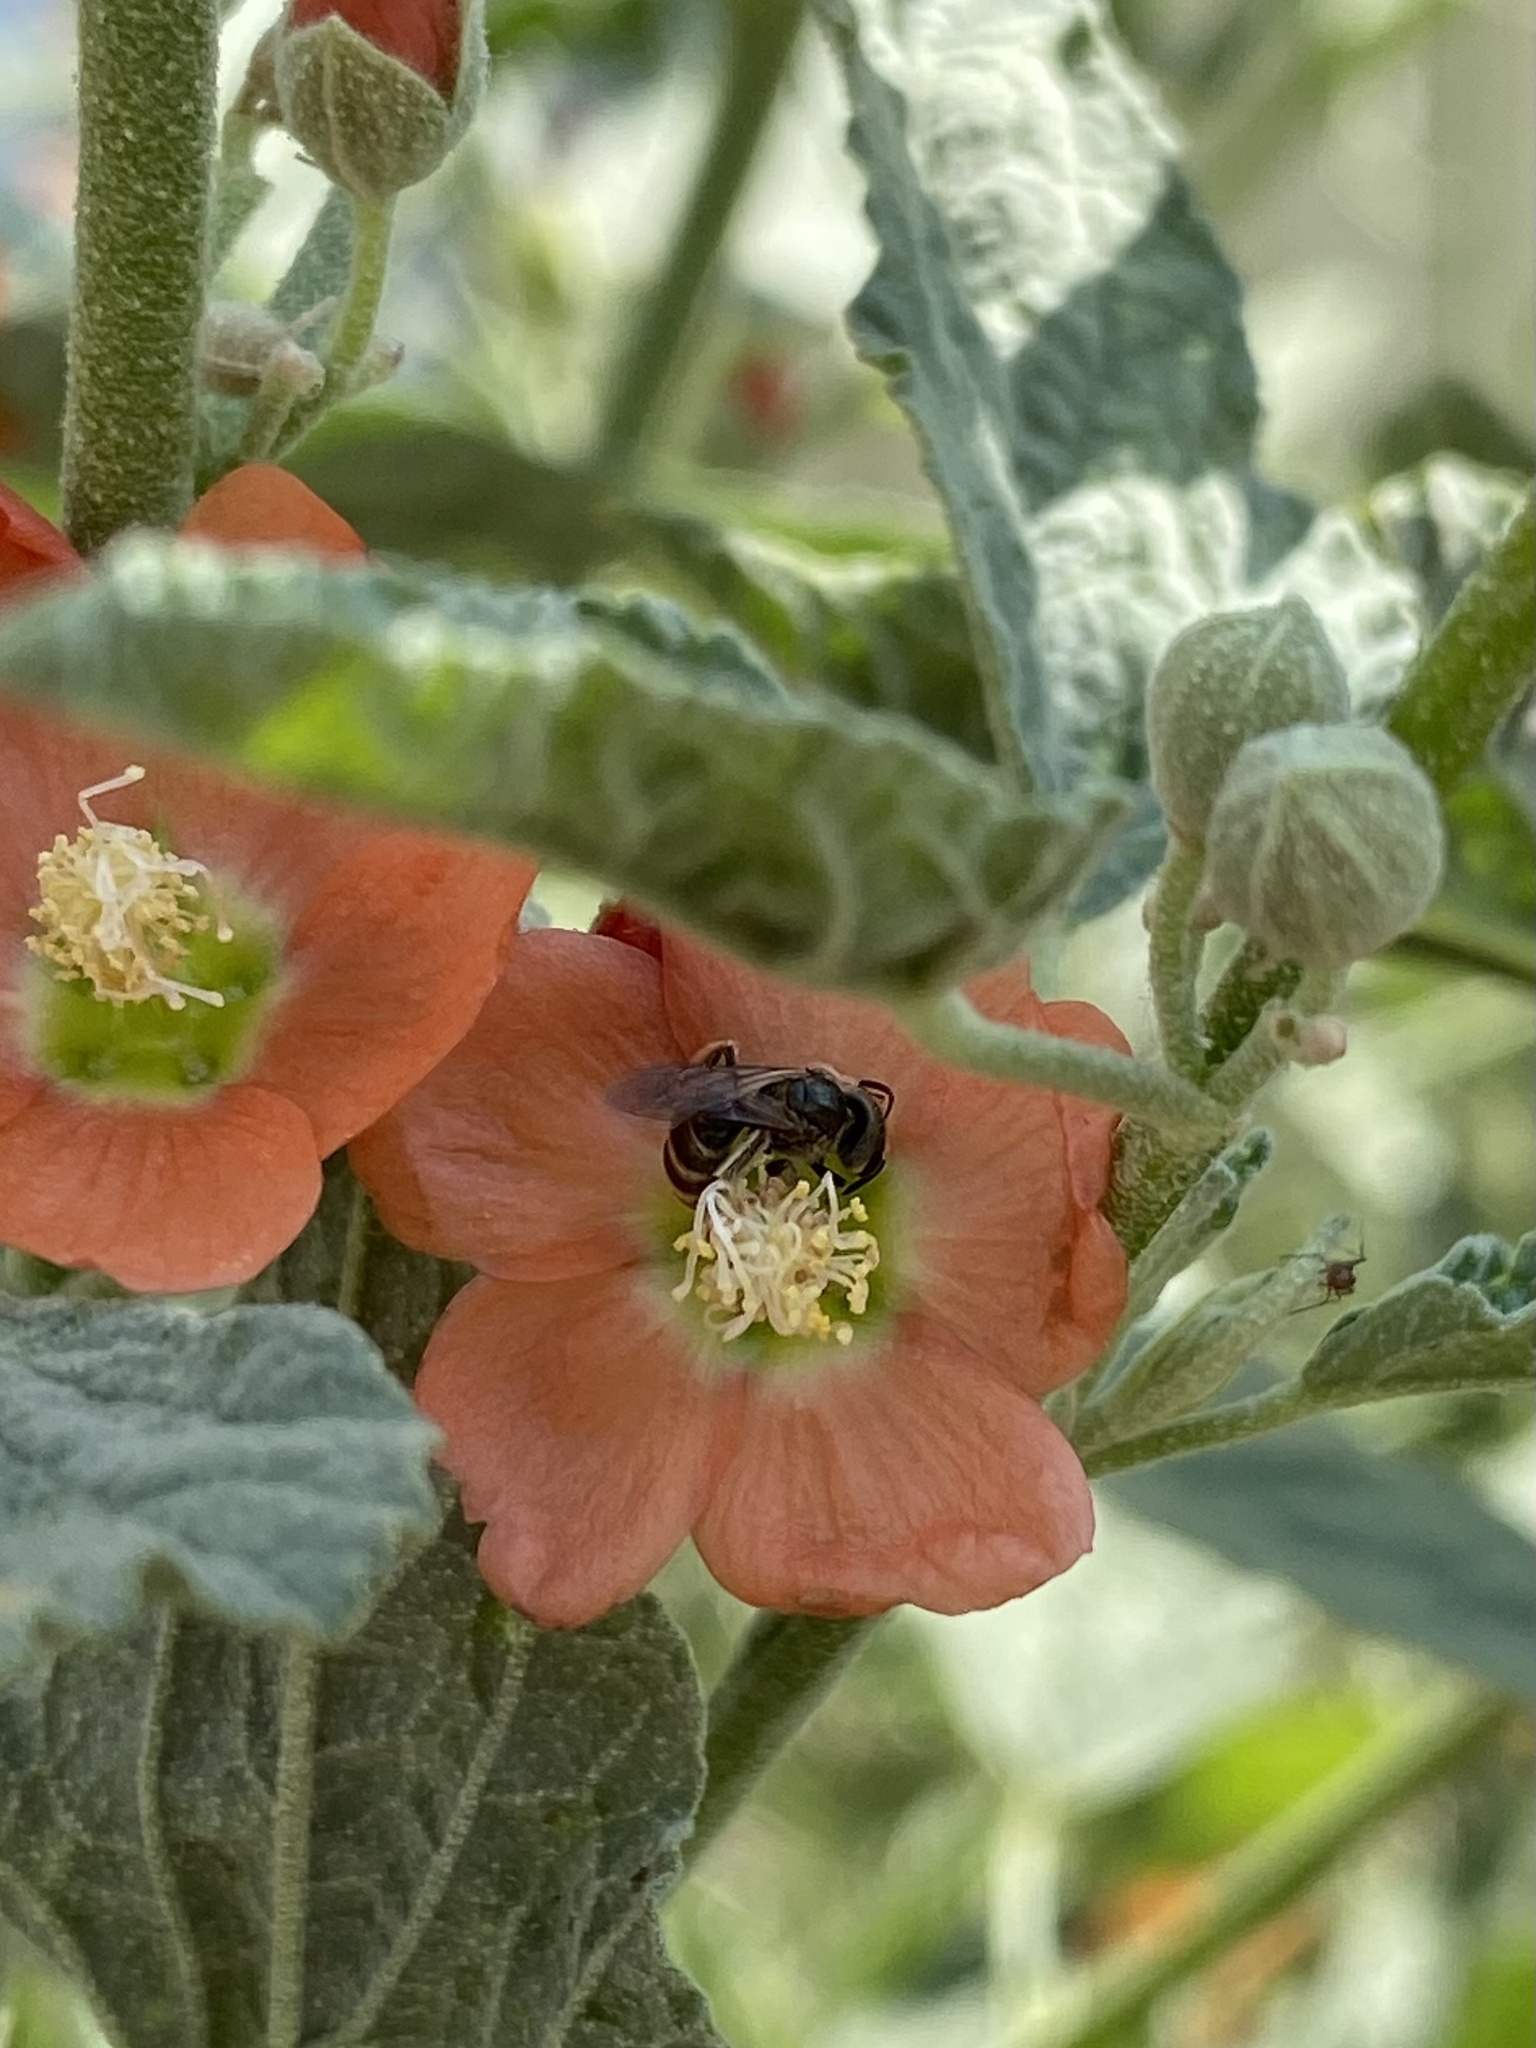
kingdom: Animalia
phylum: Arthropoda
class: Insecta
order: Hymenoptera
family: Halictidae
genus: Halictus
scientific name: Halictus tripartitus
